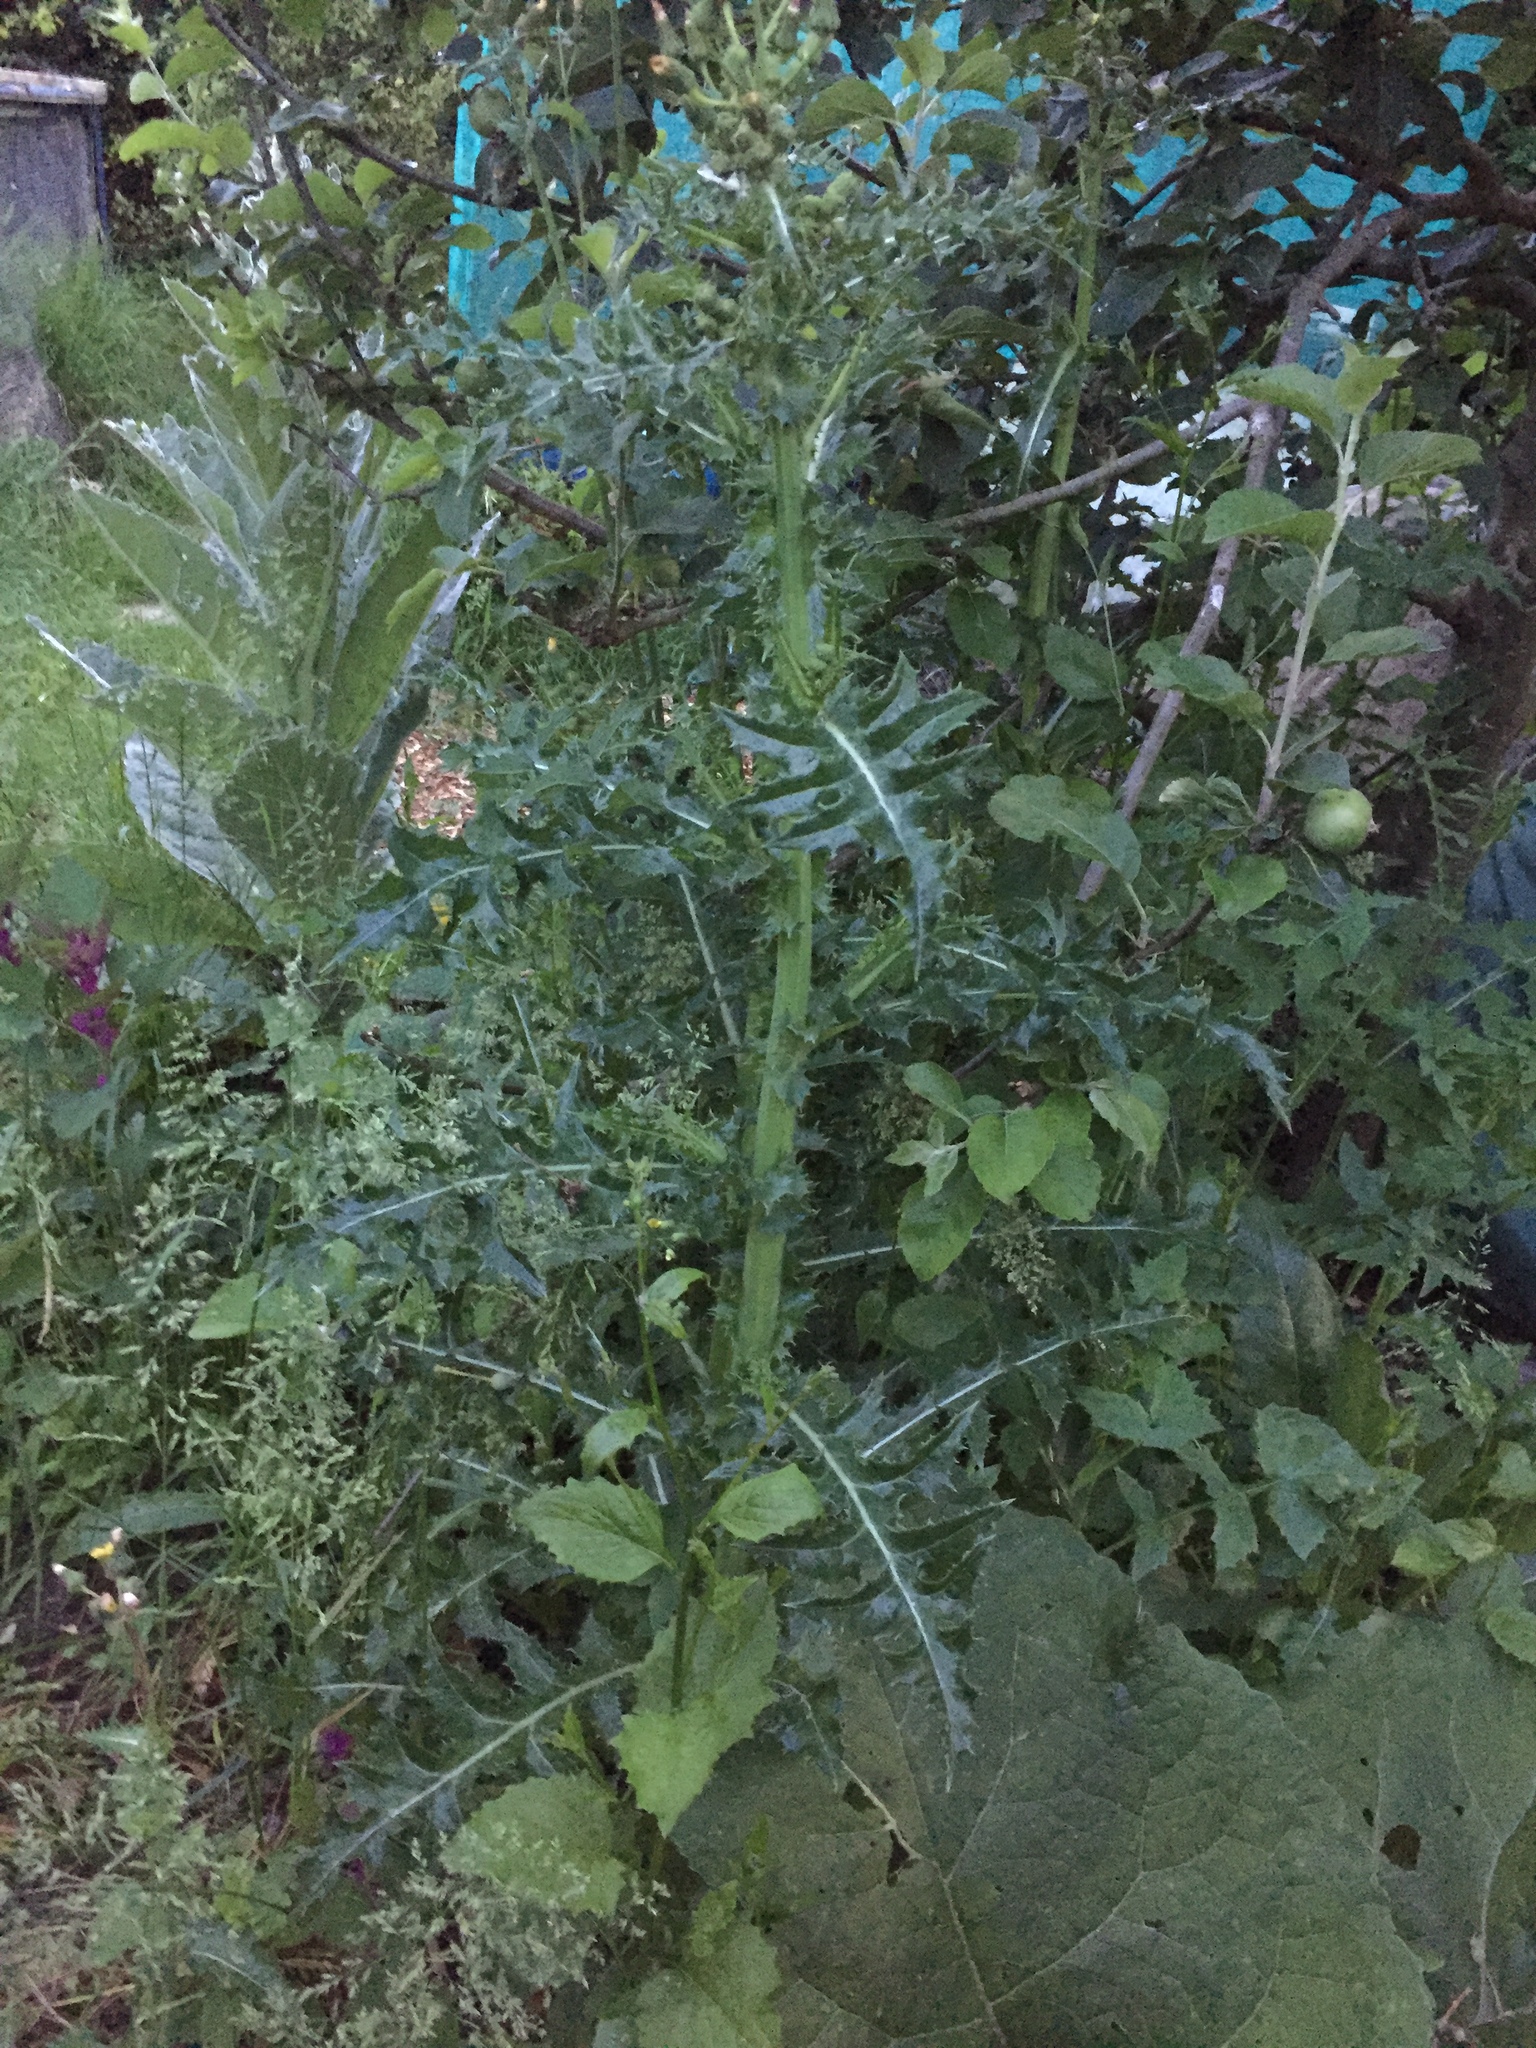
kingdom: Plantae
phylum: Tracheophyta
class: Magnoliopsida
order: Asterales
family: Asteraceae
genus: Sonchus
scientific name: Sonchus asper
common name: Prickly sow-thistle
